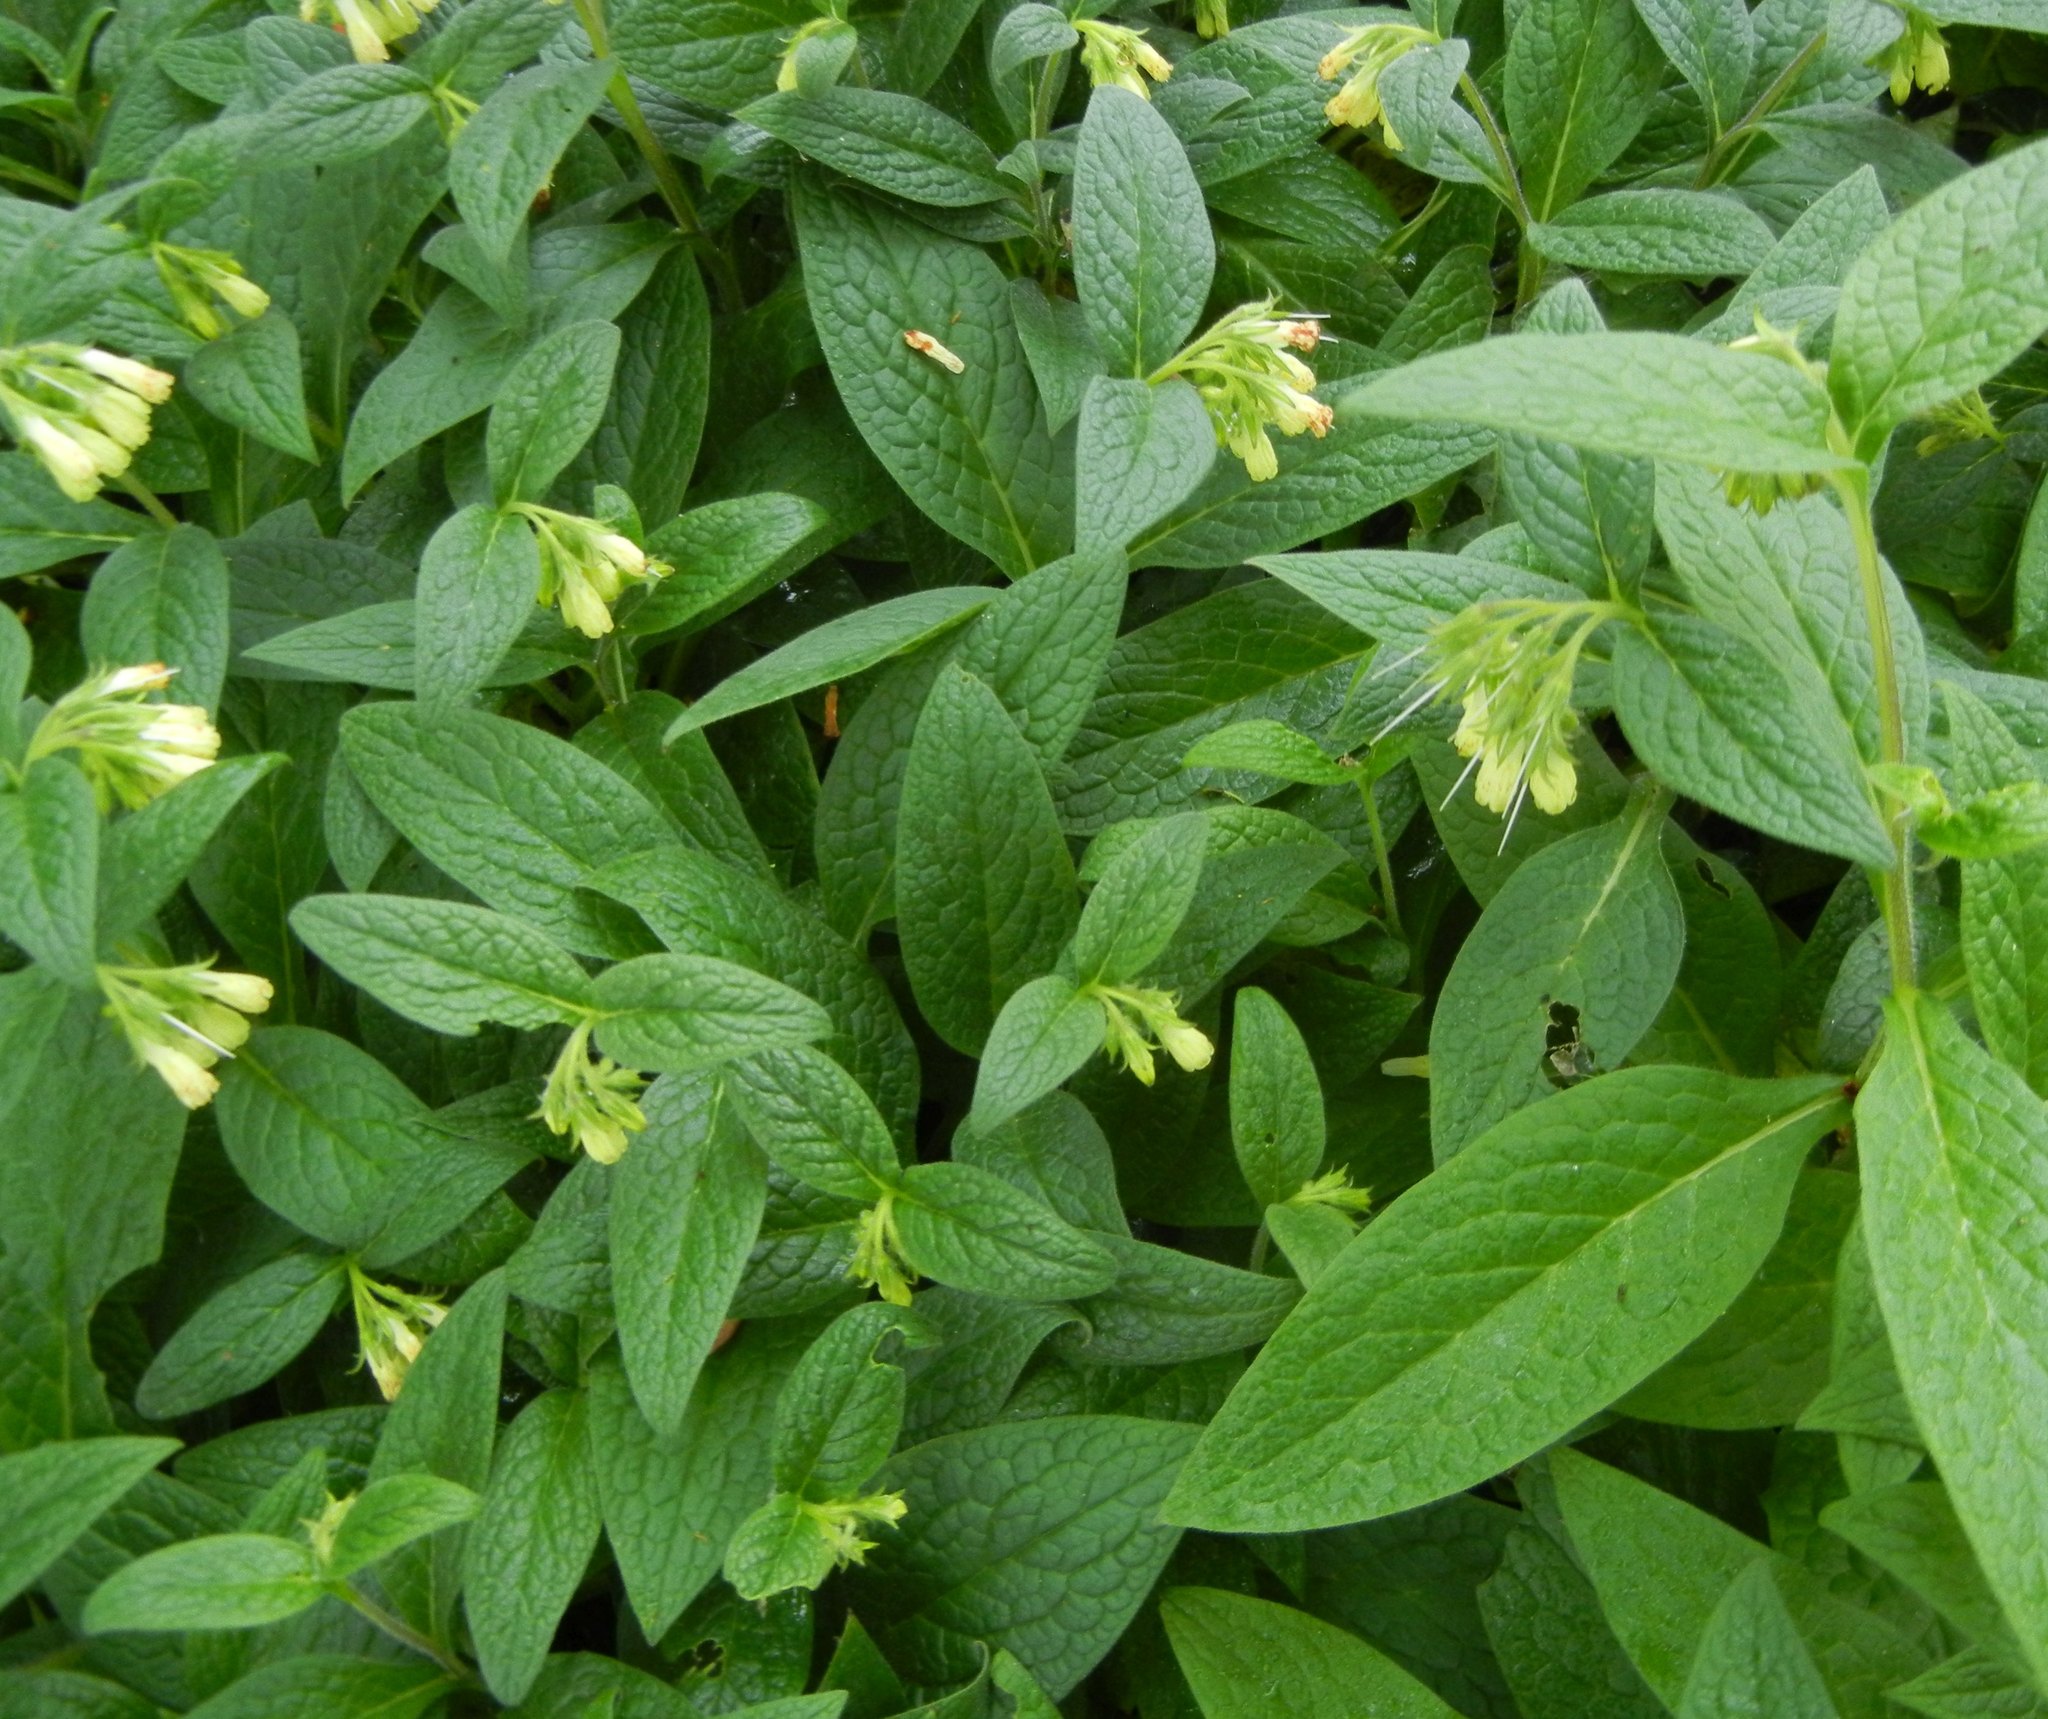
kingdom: Plantae
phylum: Tracheophyta
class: Magnoliopsida
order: Boraginales
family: Boraginaceae
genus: Symphytum
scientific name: Symphytum tuberosum
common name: Tuberous comfrey
